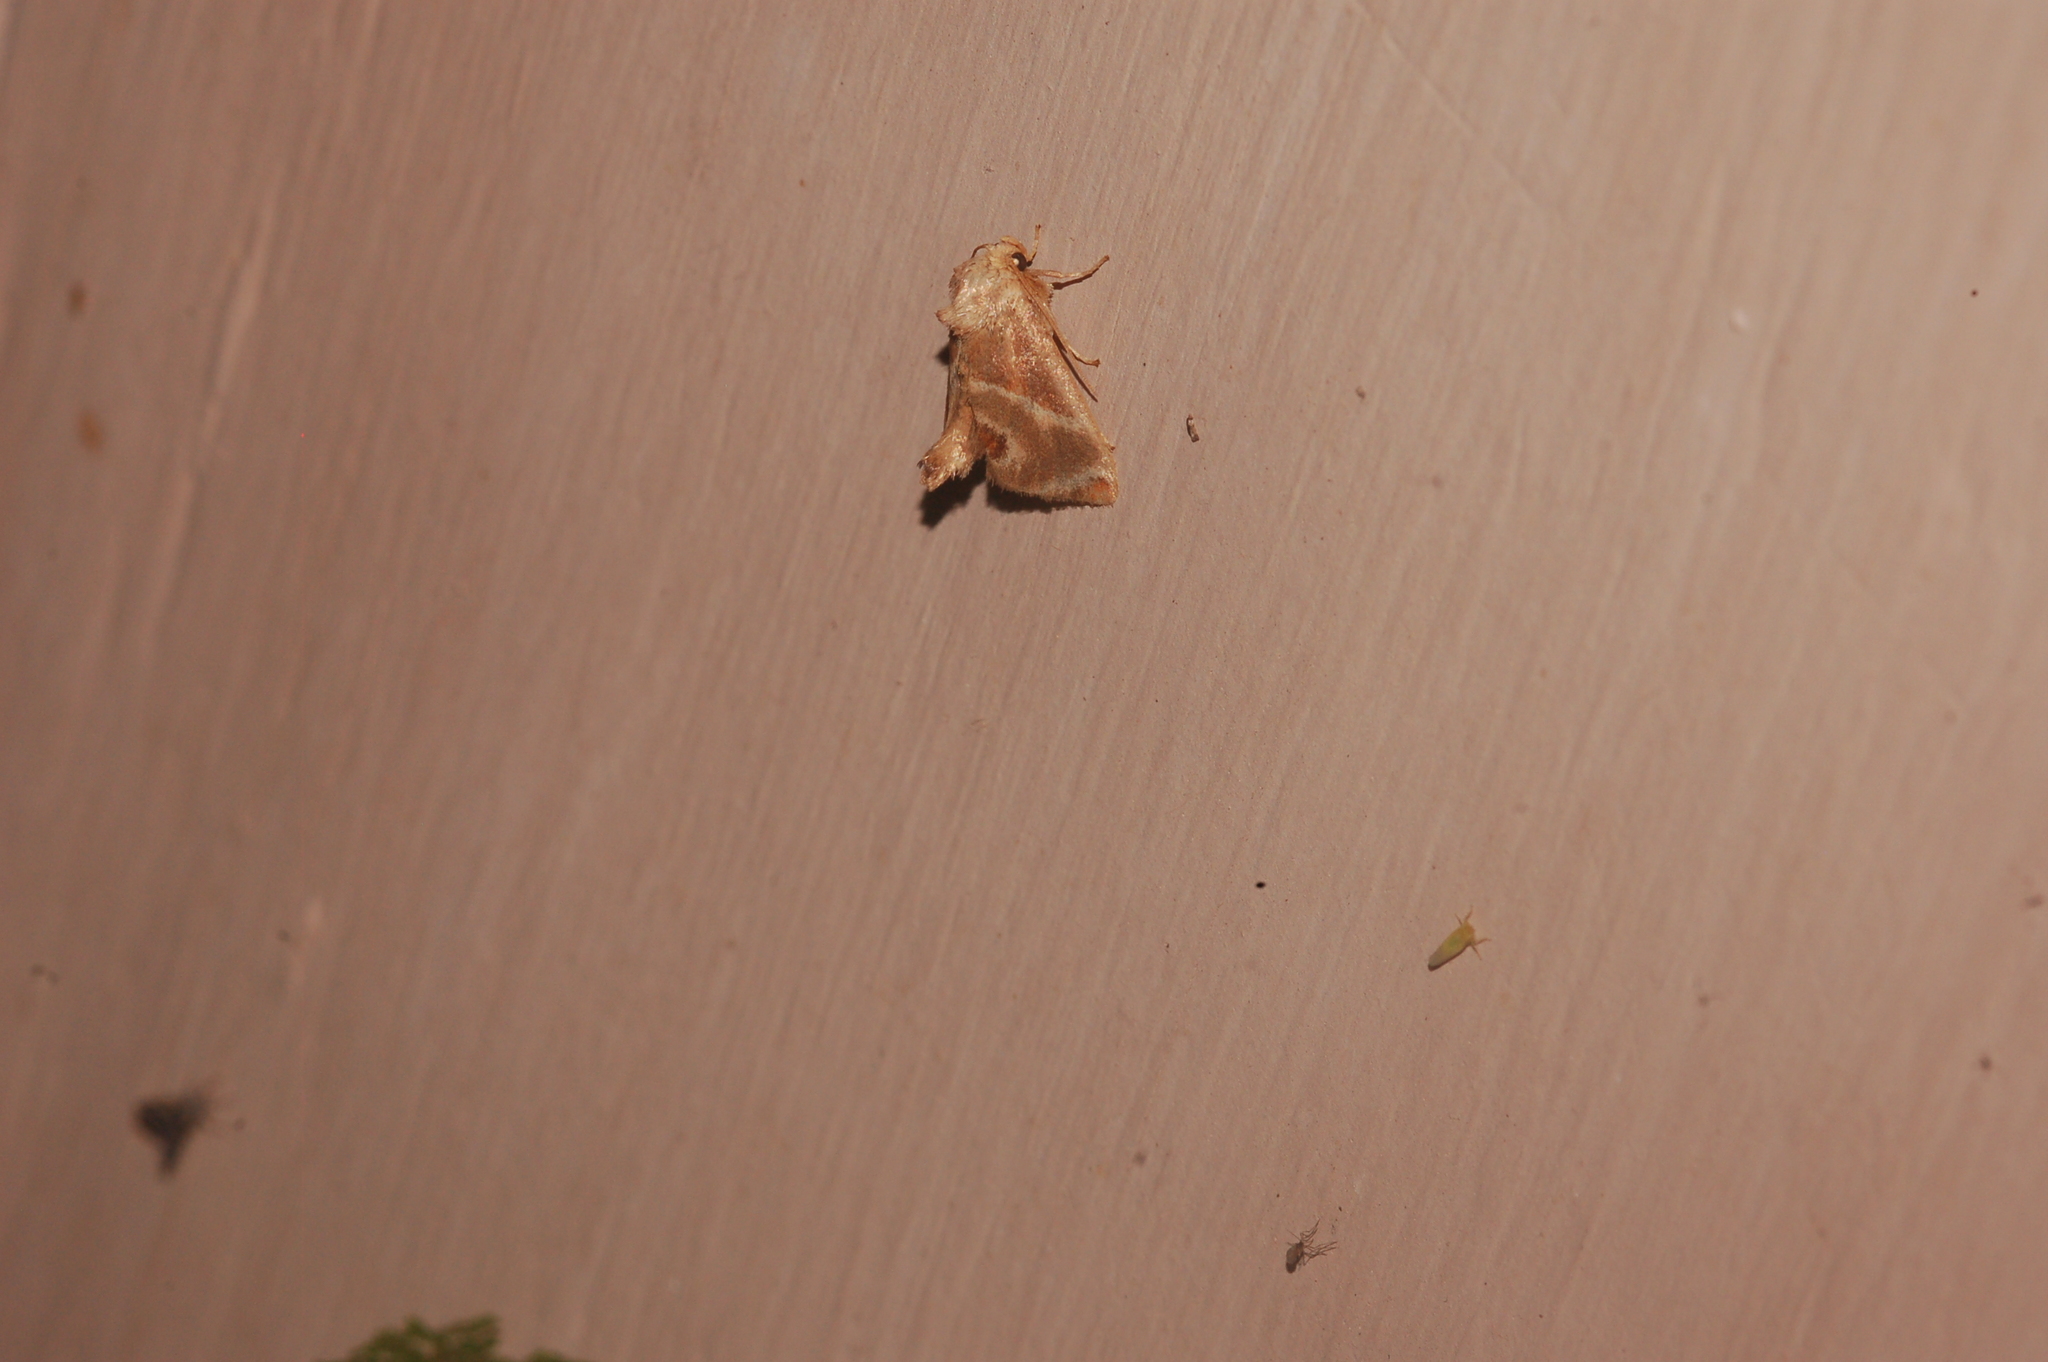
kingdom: Animalia
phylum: Arthropoda
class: Insecta
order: Lepidoptera
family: Limacodidae
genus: Apoda
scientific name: Apoda biguttata
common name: Shagreened slug moth
